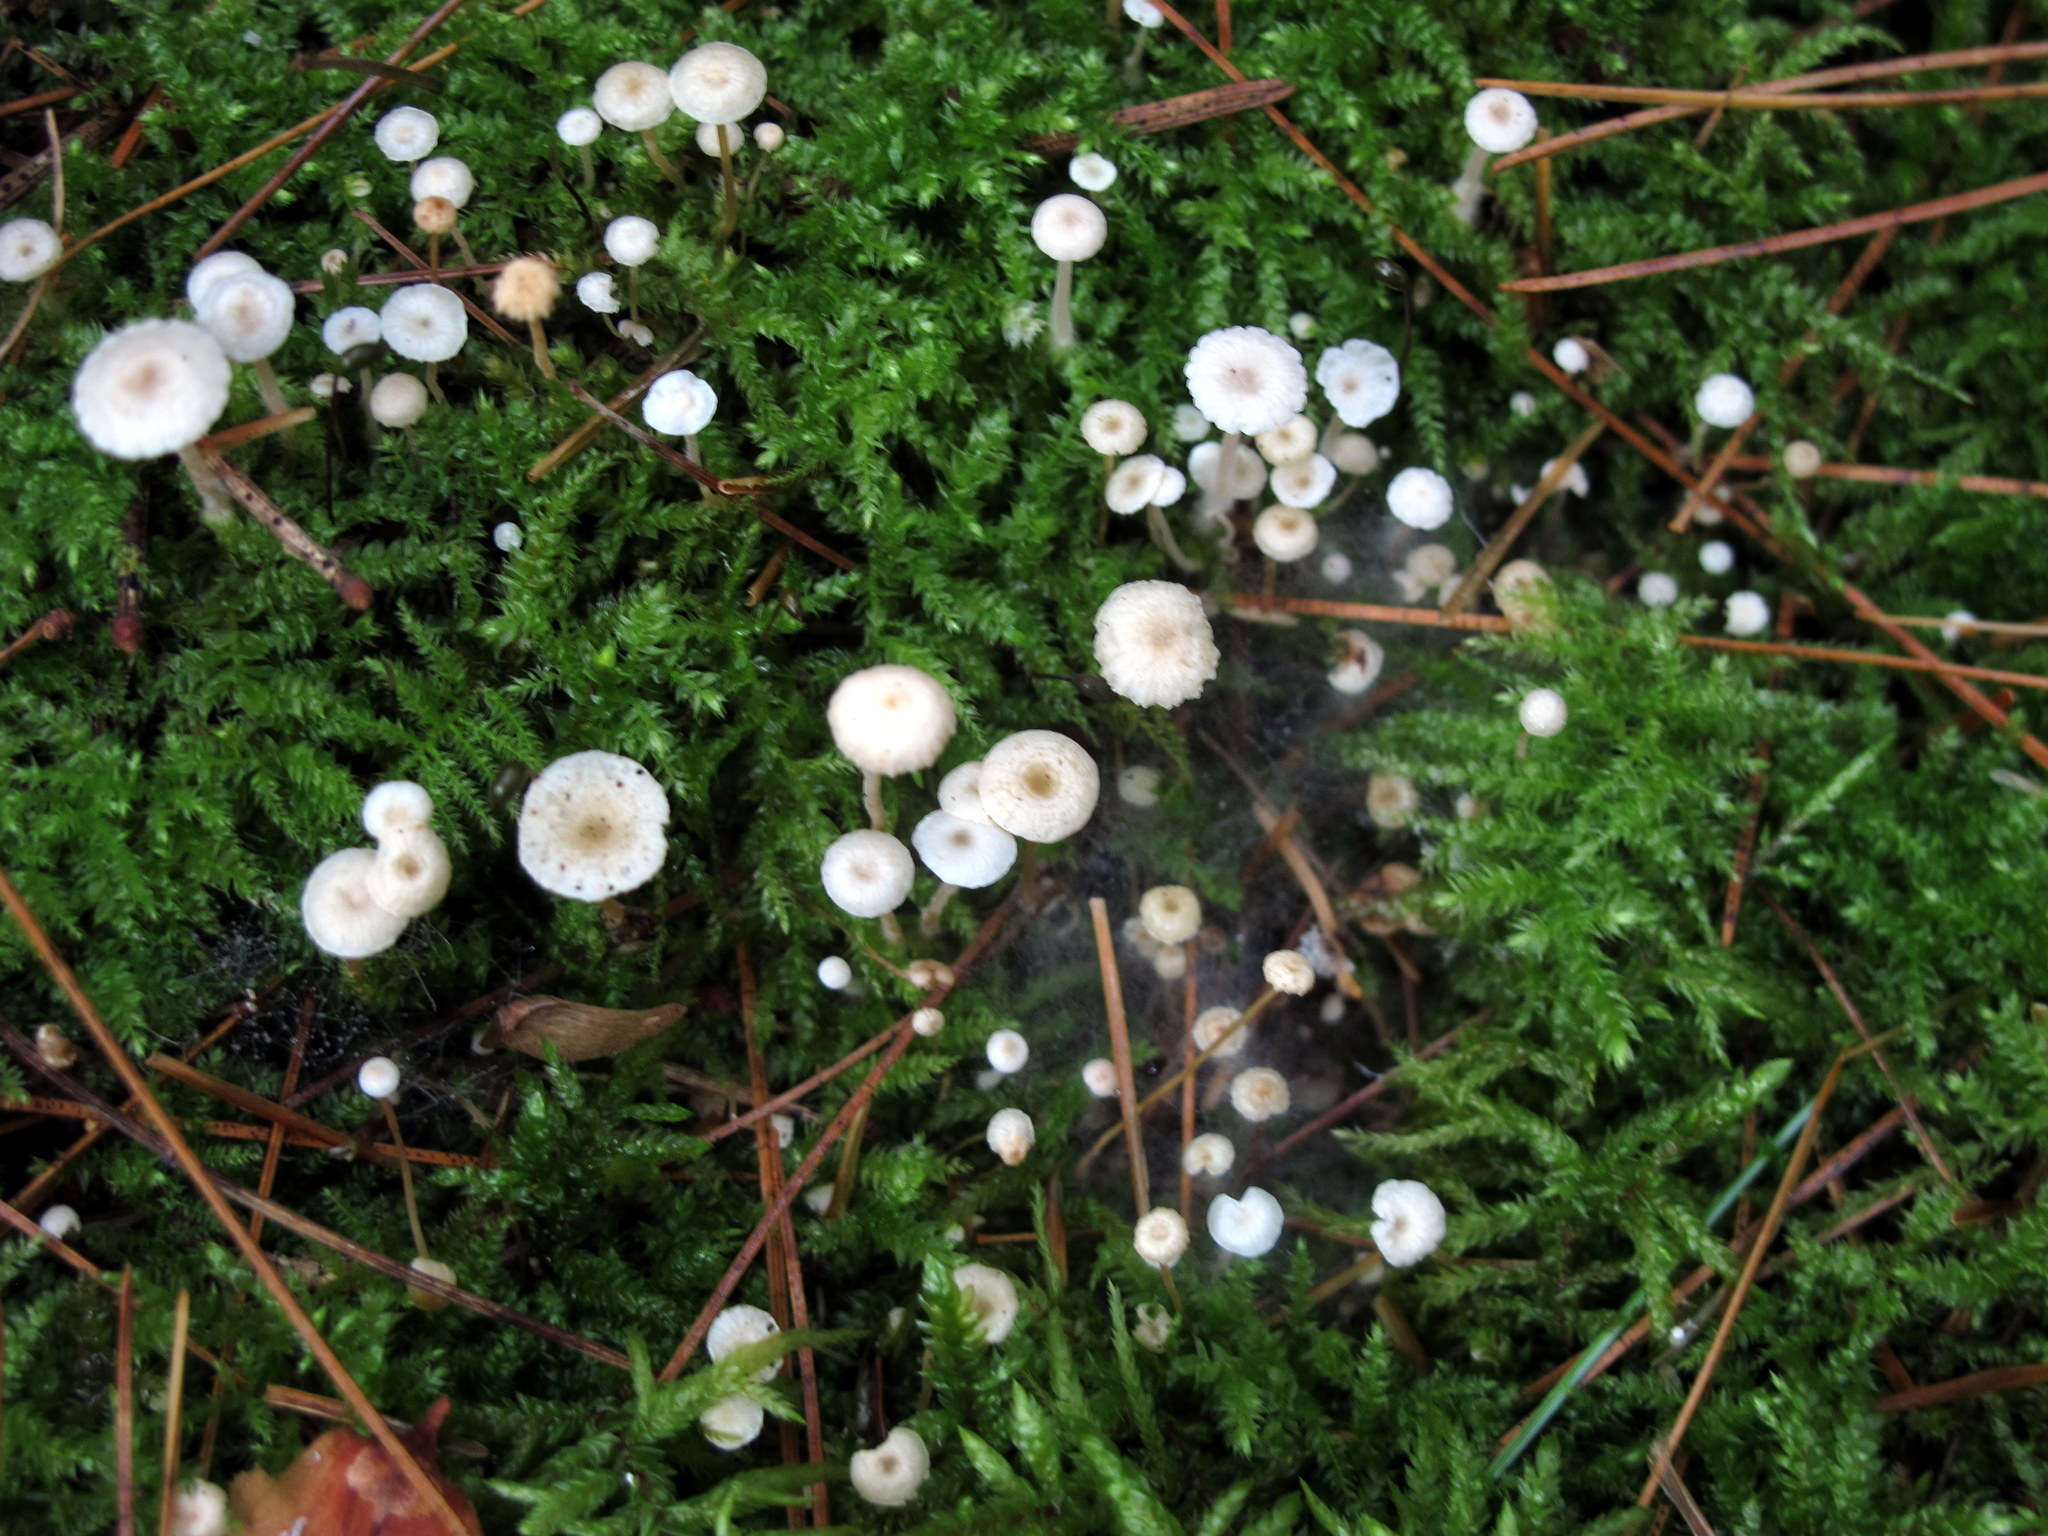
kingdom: Fungi
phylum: Basidiomycota
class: Agaricomycetes
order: Agaricales
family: Tricholomataceae
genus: Collybia
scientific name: Collybia cirrhata
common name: Piggyback shanklet
